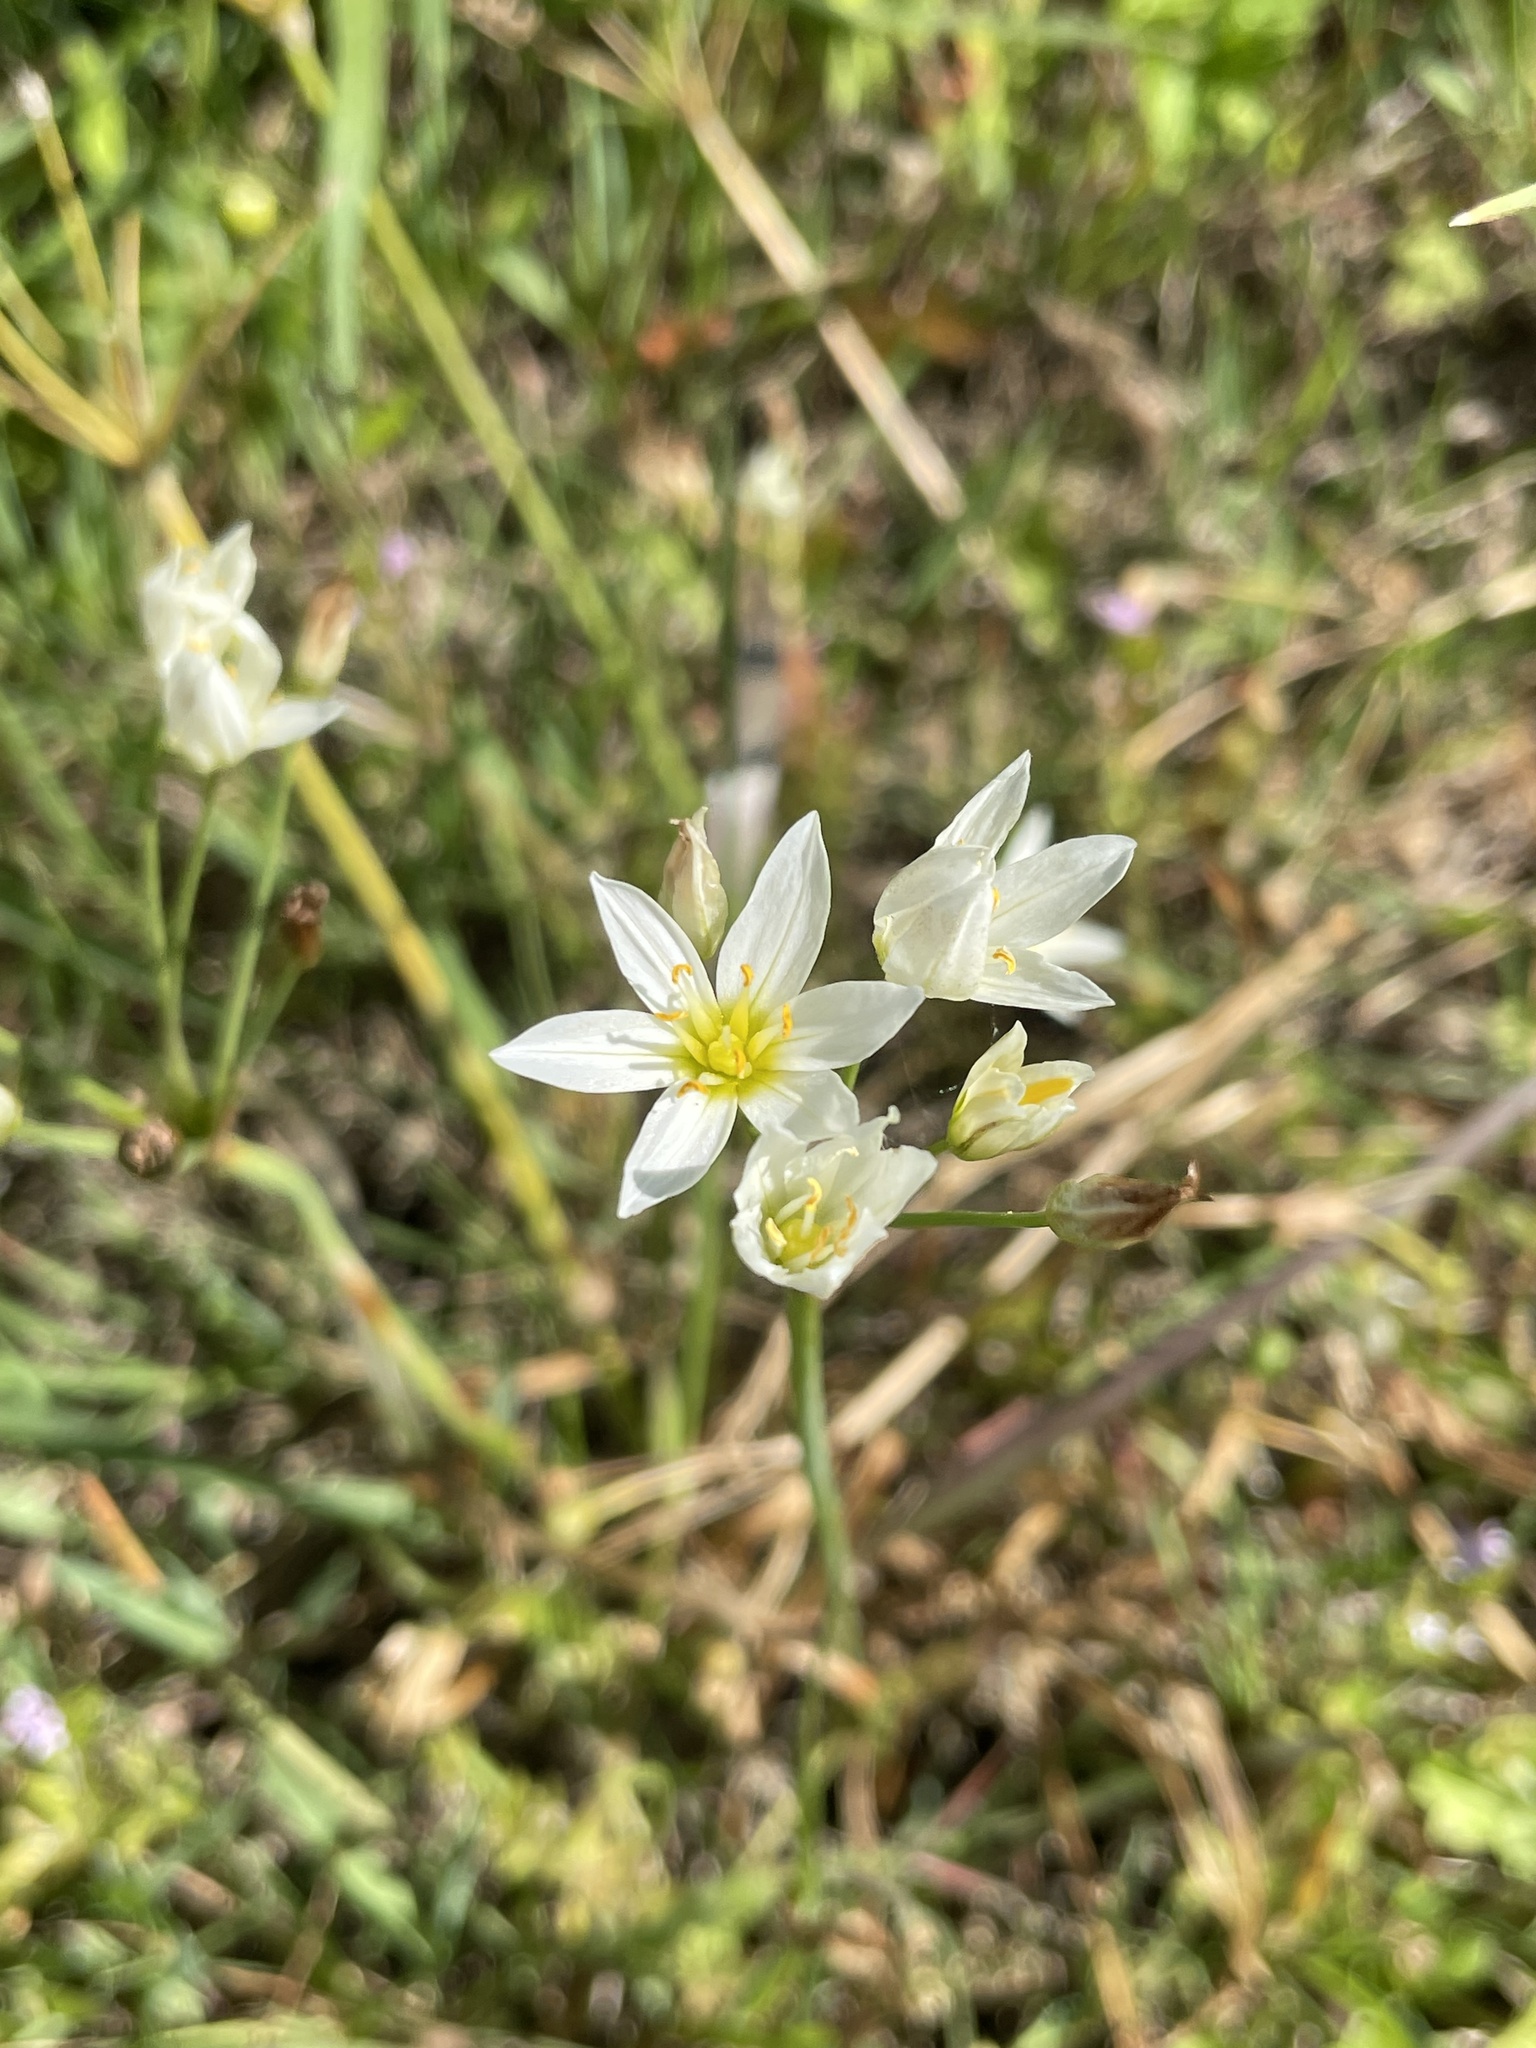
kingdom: Plantae
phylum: Tracheophyta
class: Liliopsida
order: Asparagales
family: Amaryllidaceae
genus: Nothoscordum
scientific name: Nothoscordum bivalve
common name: Crow-poison
